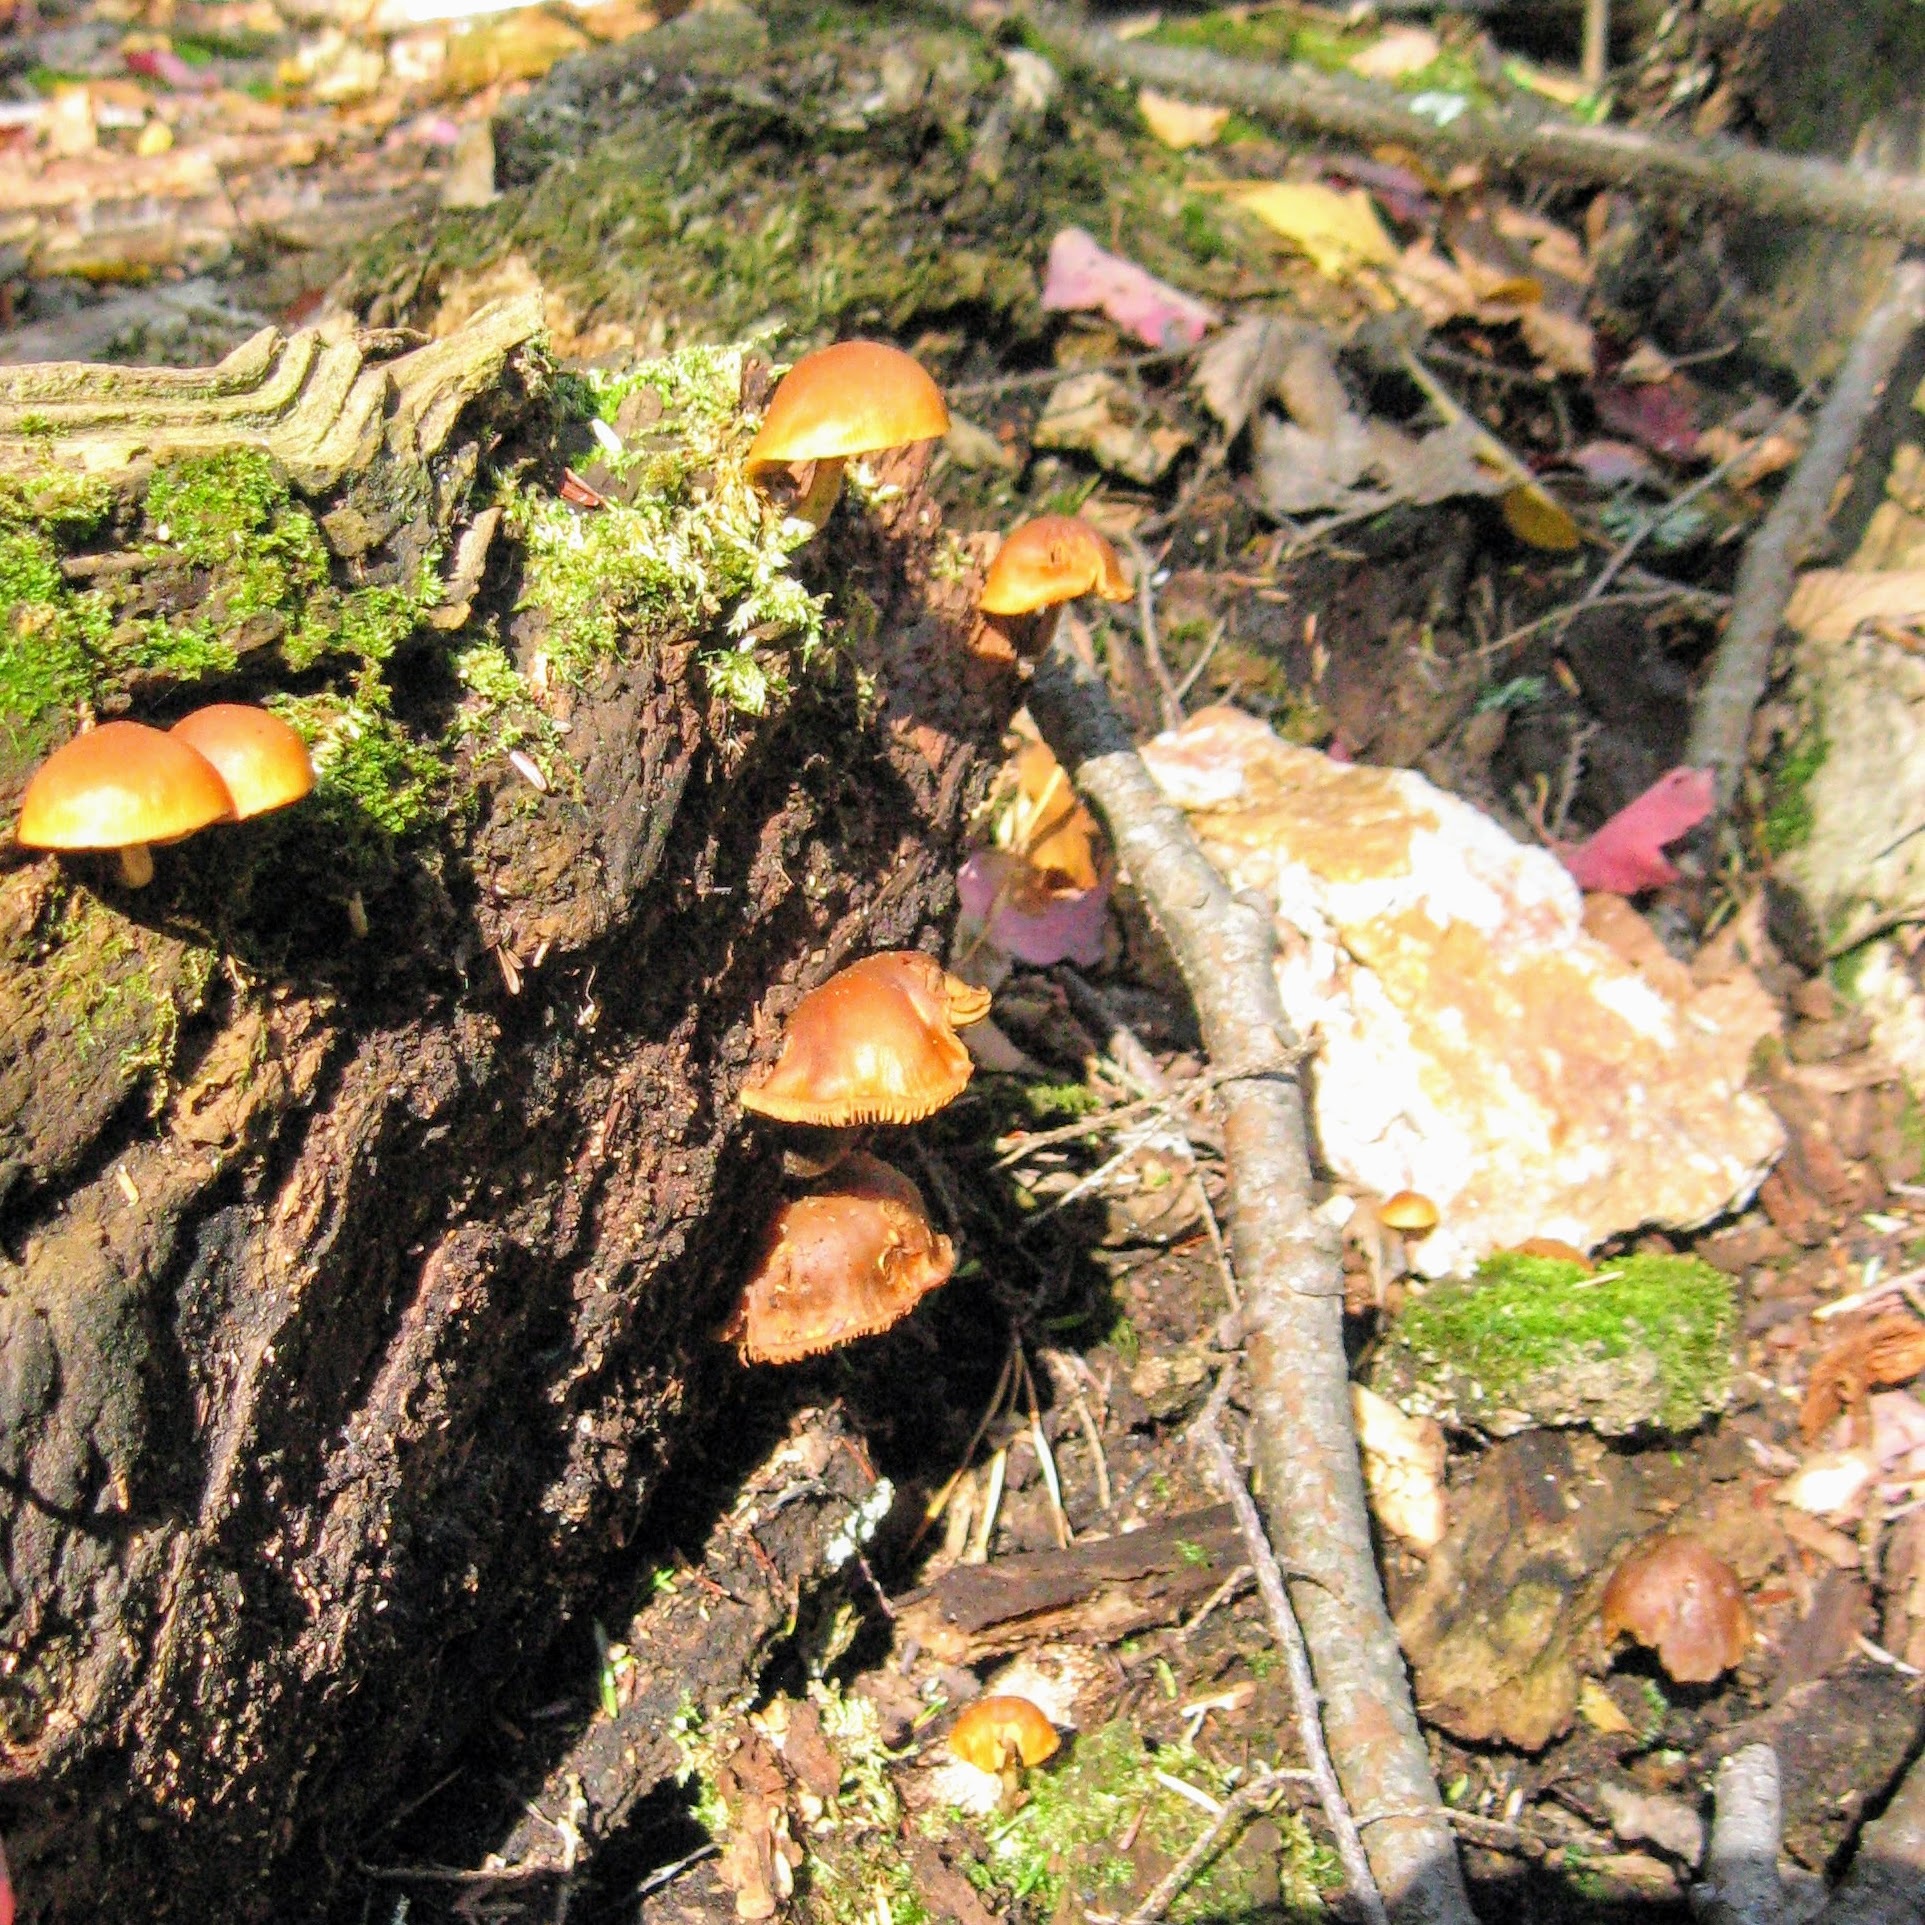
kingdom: Fungi
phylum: Basidiomycota
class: Agaricomycetes
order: Agaricales
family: Hymenogastraceae
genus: Galerina
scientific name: Galerina
